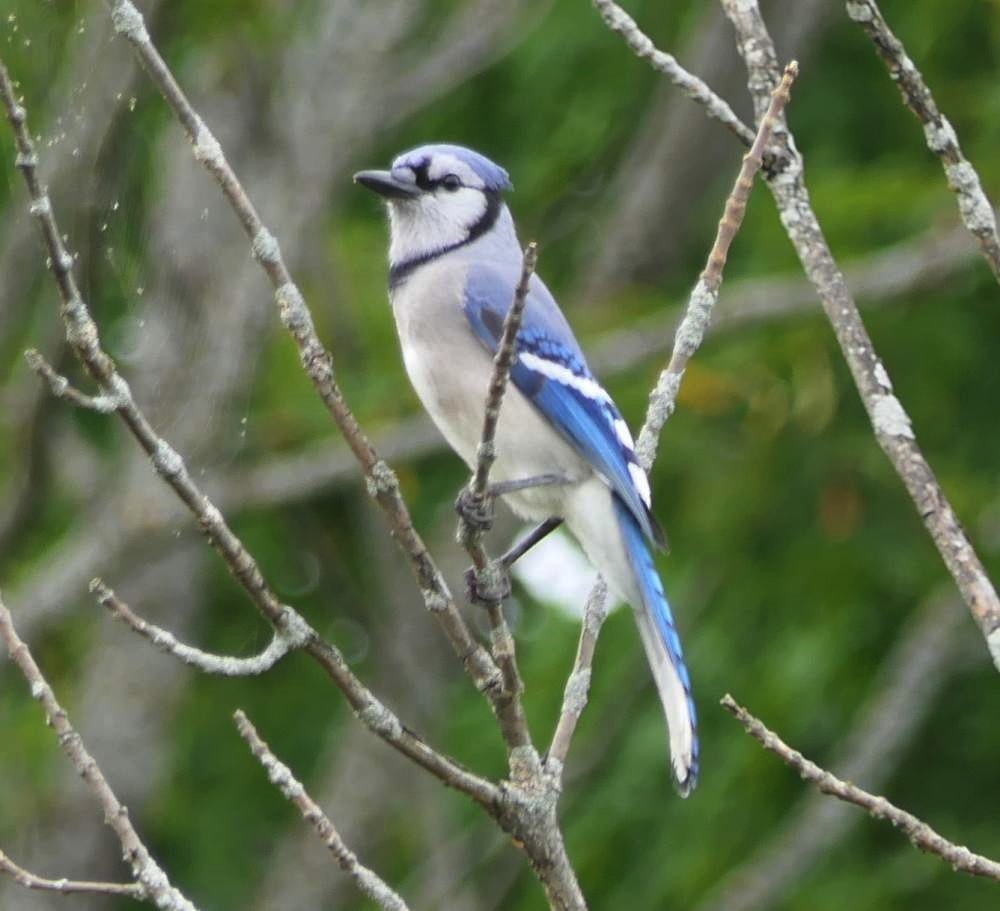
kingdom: Animalia
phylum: Chordata
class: Aves
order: Passeriformes
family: Corvidae
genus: Cyanocitta
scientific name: Cyanocitta cristata
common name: Blue jay
